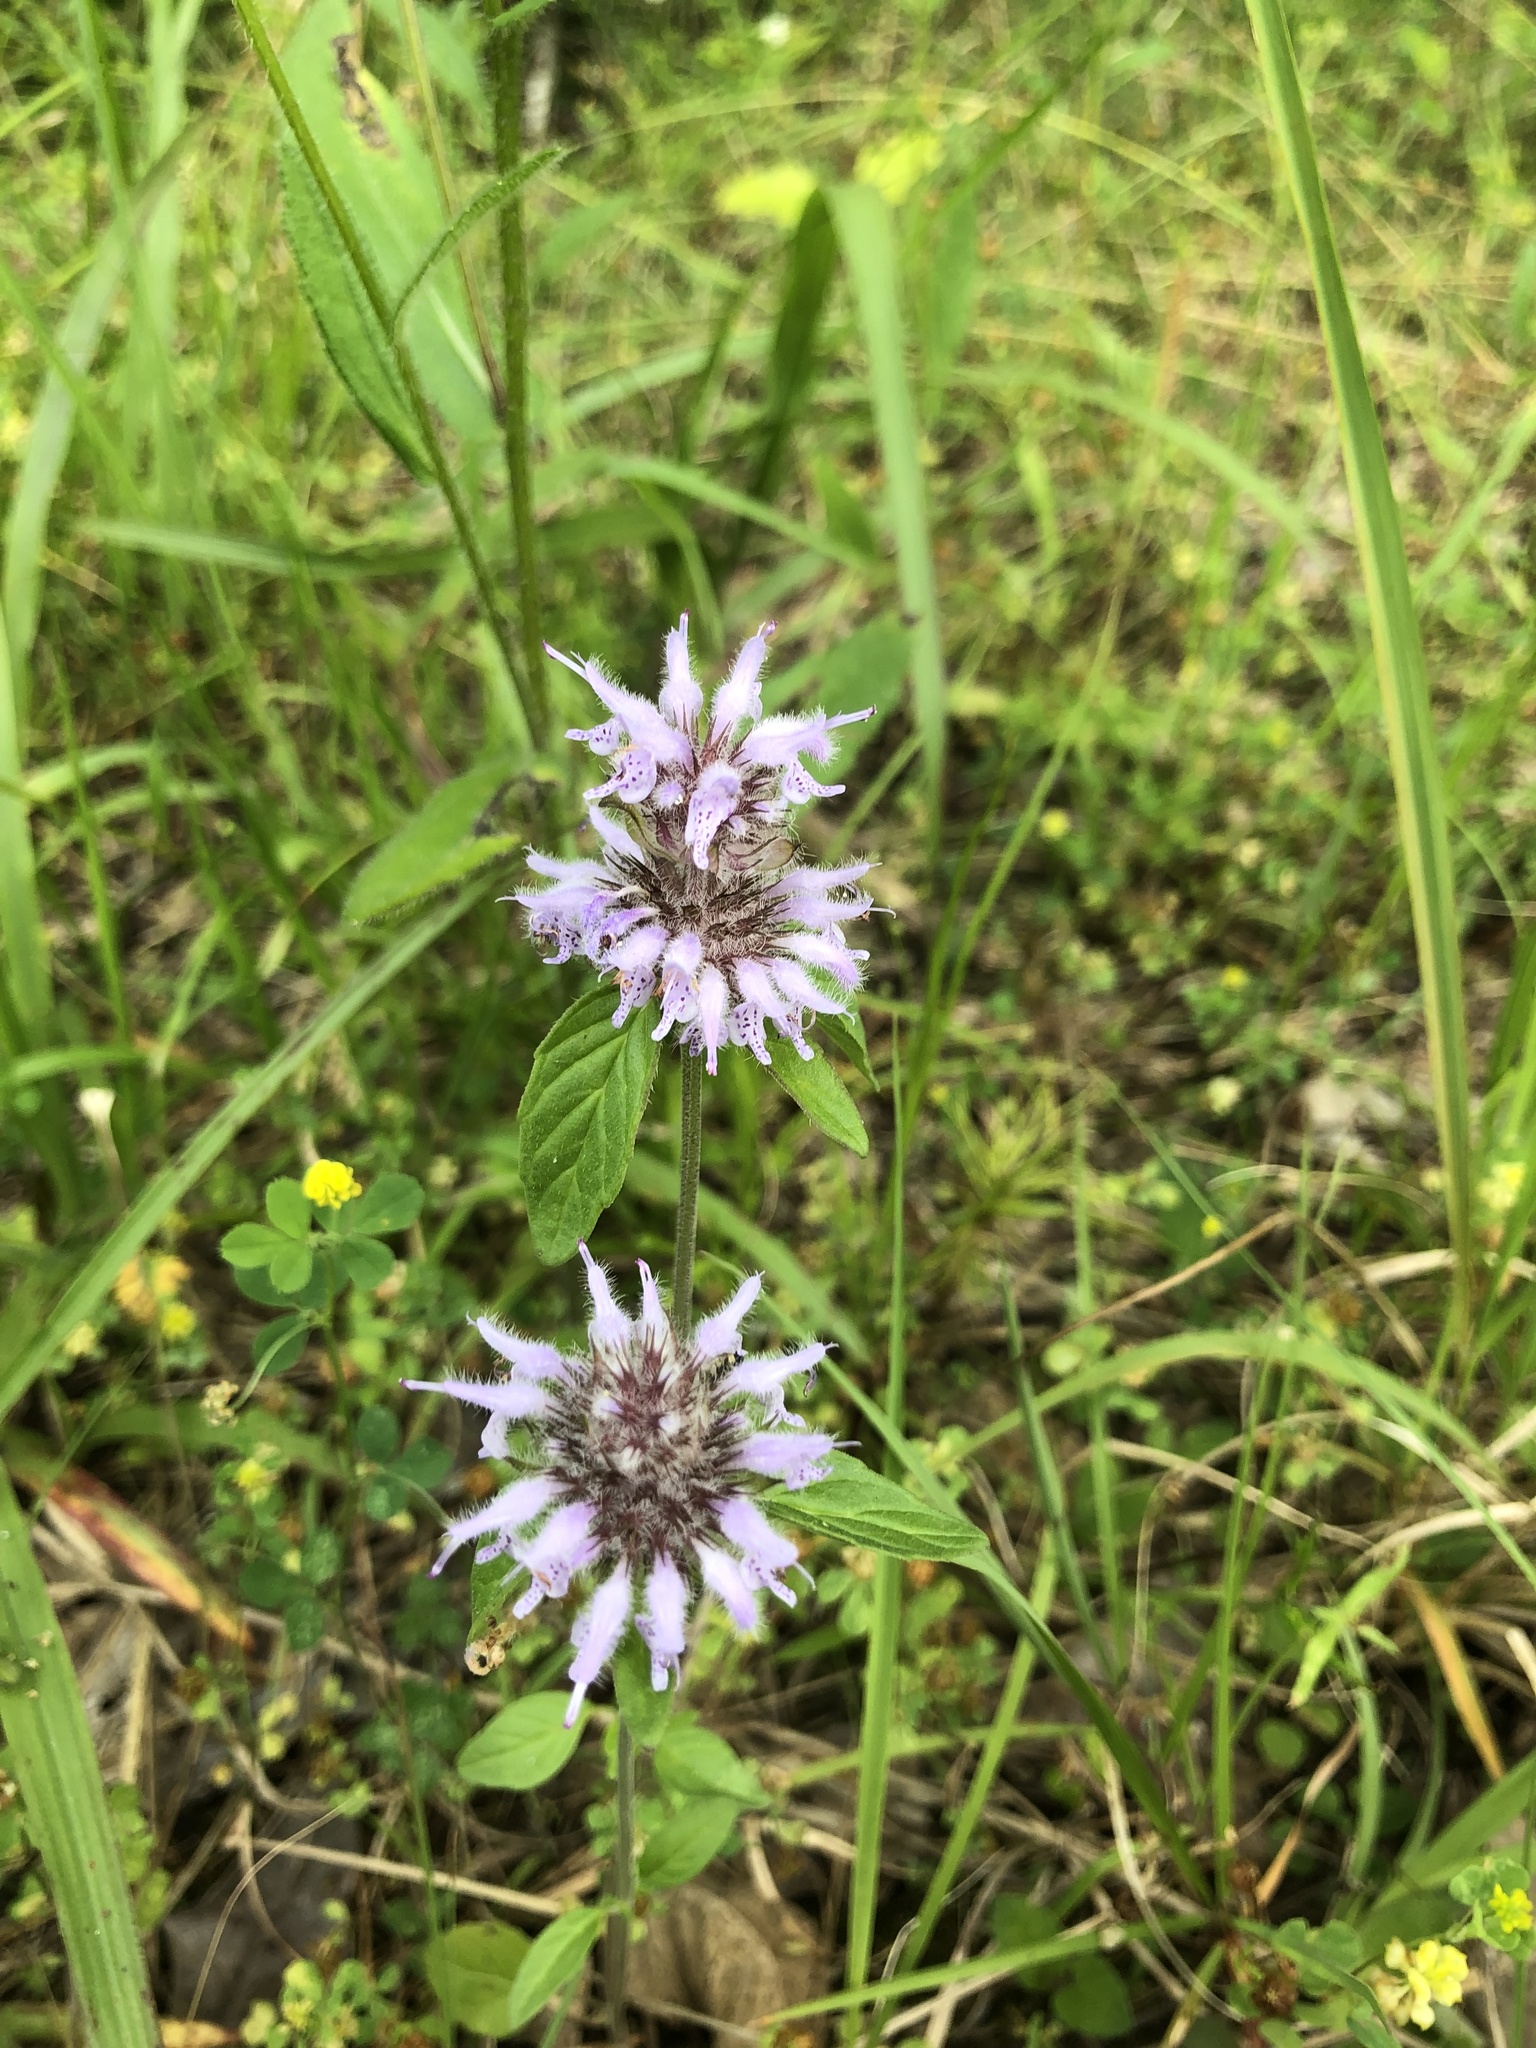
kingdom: Plantae
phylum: Tracheophyta
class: Magnoliopsida
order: Lamiales
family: Lamiaceae
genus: Blephilia
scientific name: Blephilia ciliata
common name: Downy blephilia
